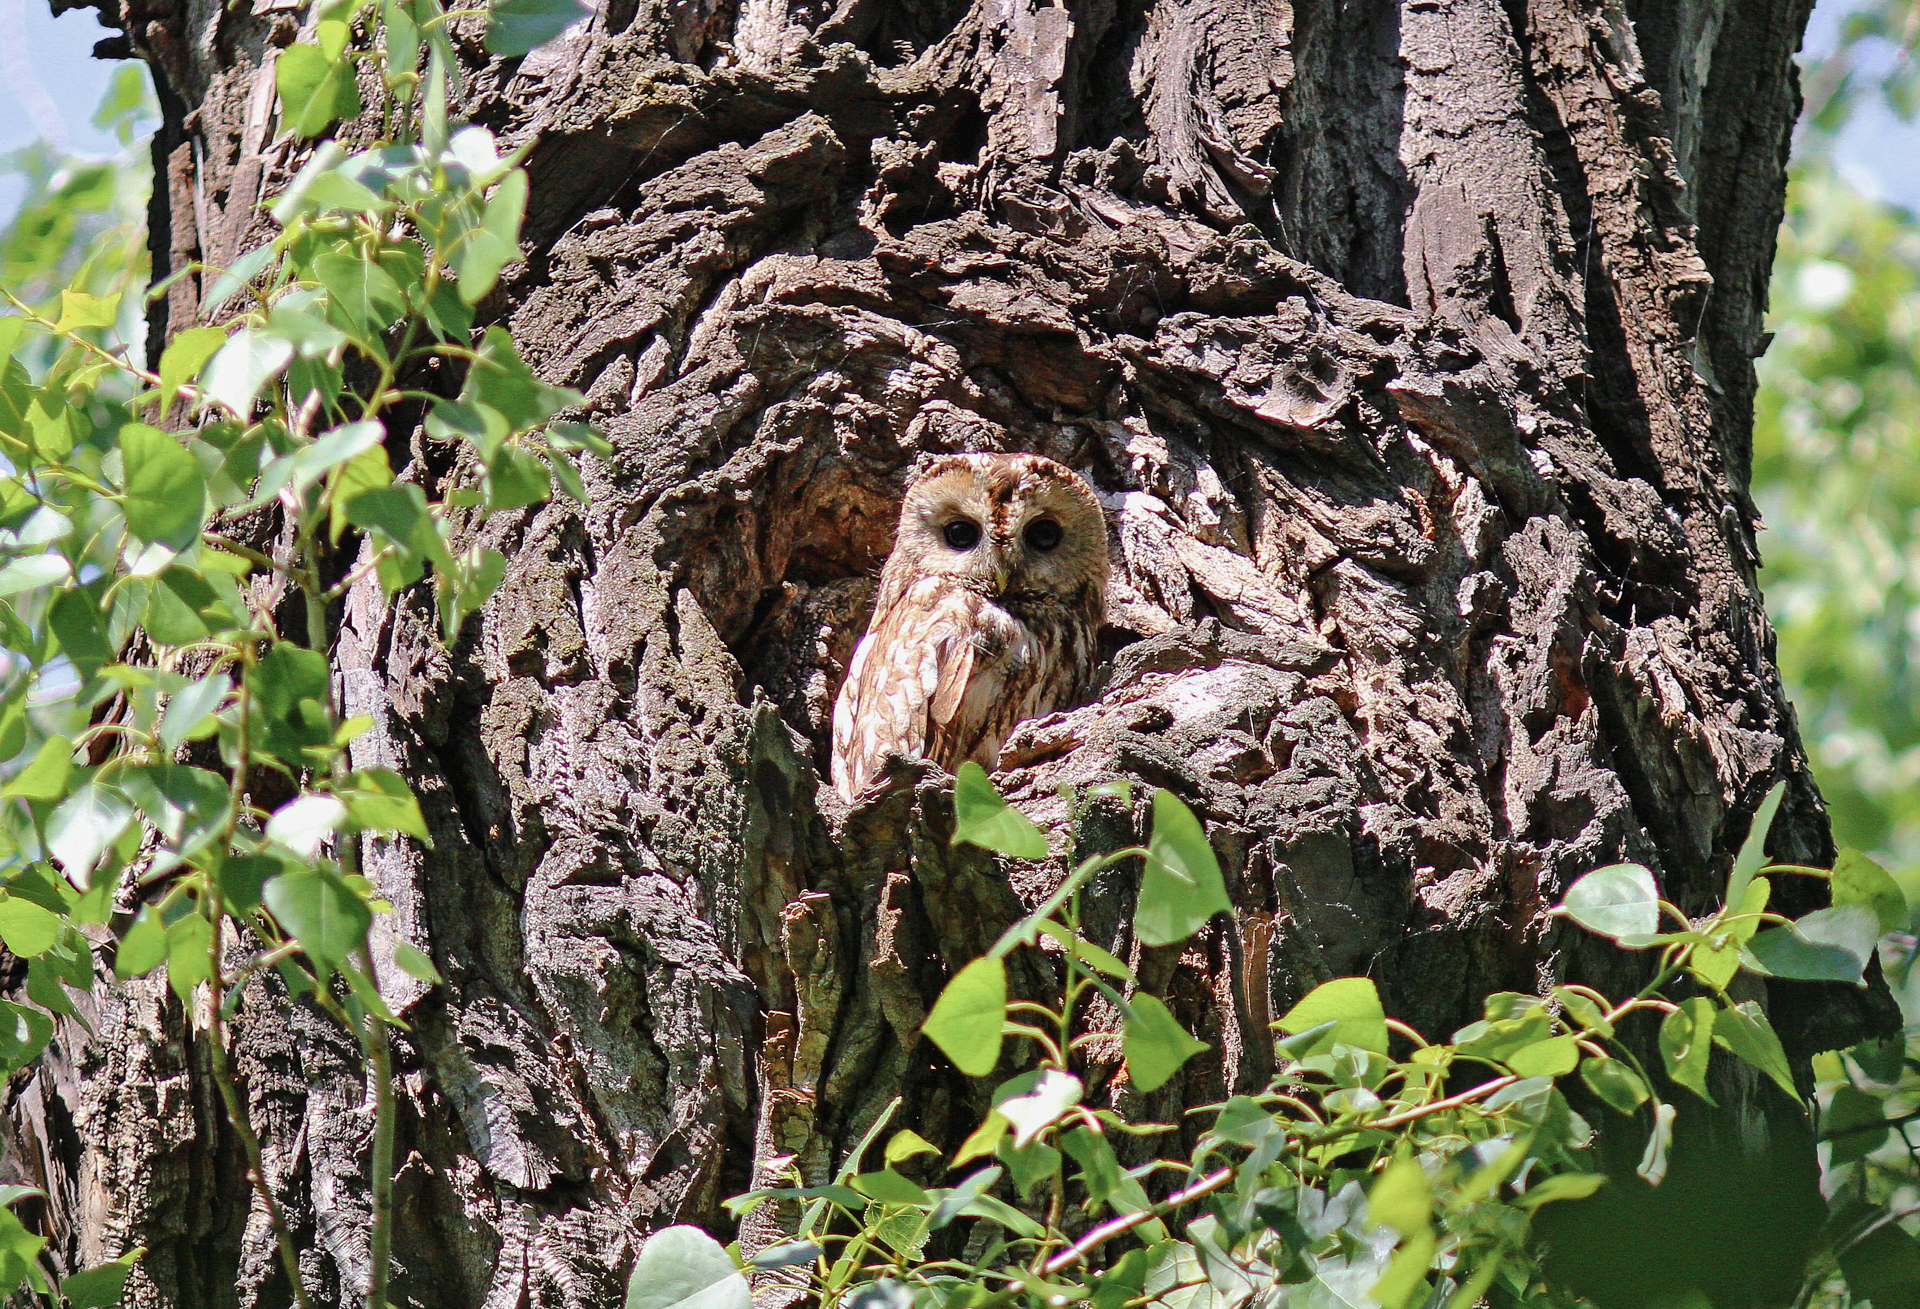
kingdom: Animalia
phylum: Chordata
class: Aves
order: Strigiformes
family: Strigidae
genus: Strix
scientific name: Strix aluco
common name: Tawny owl
